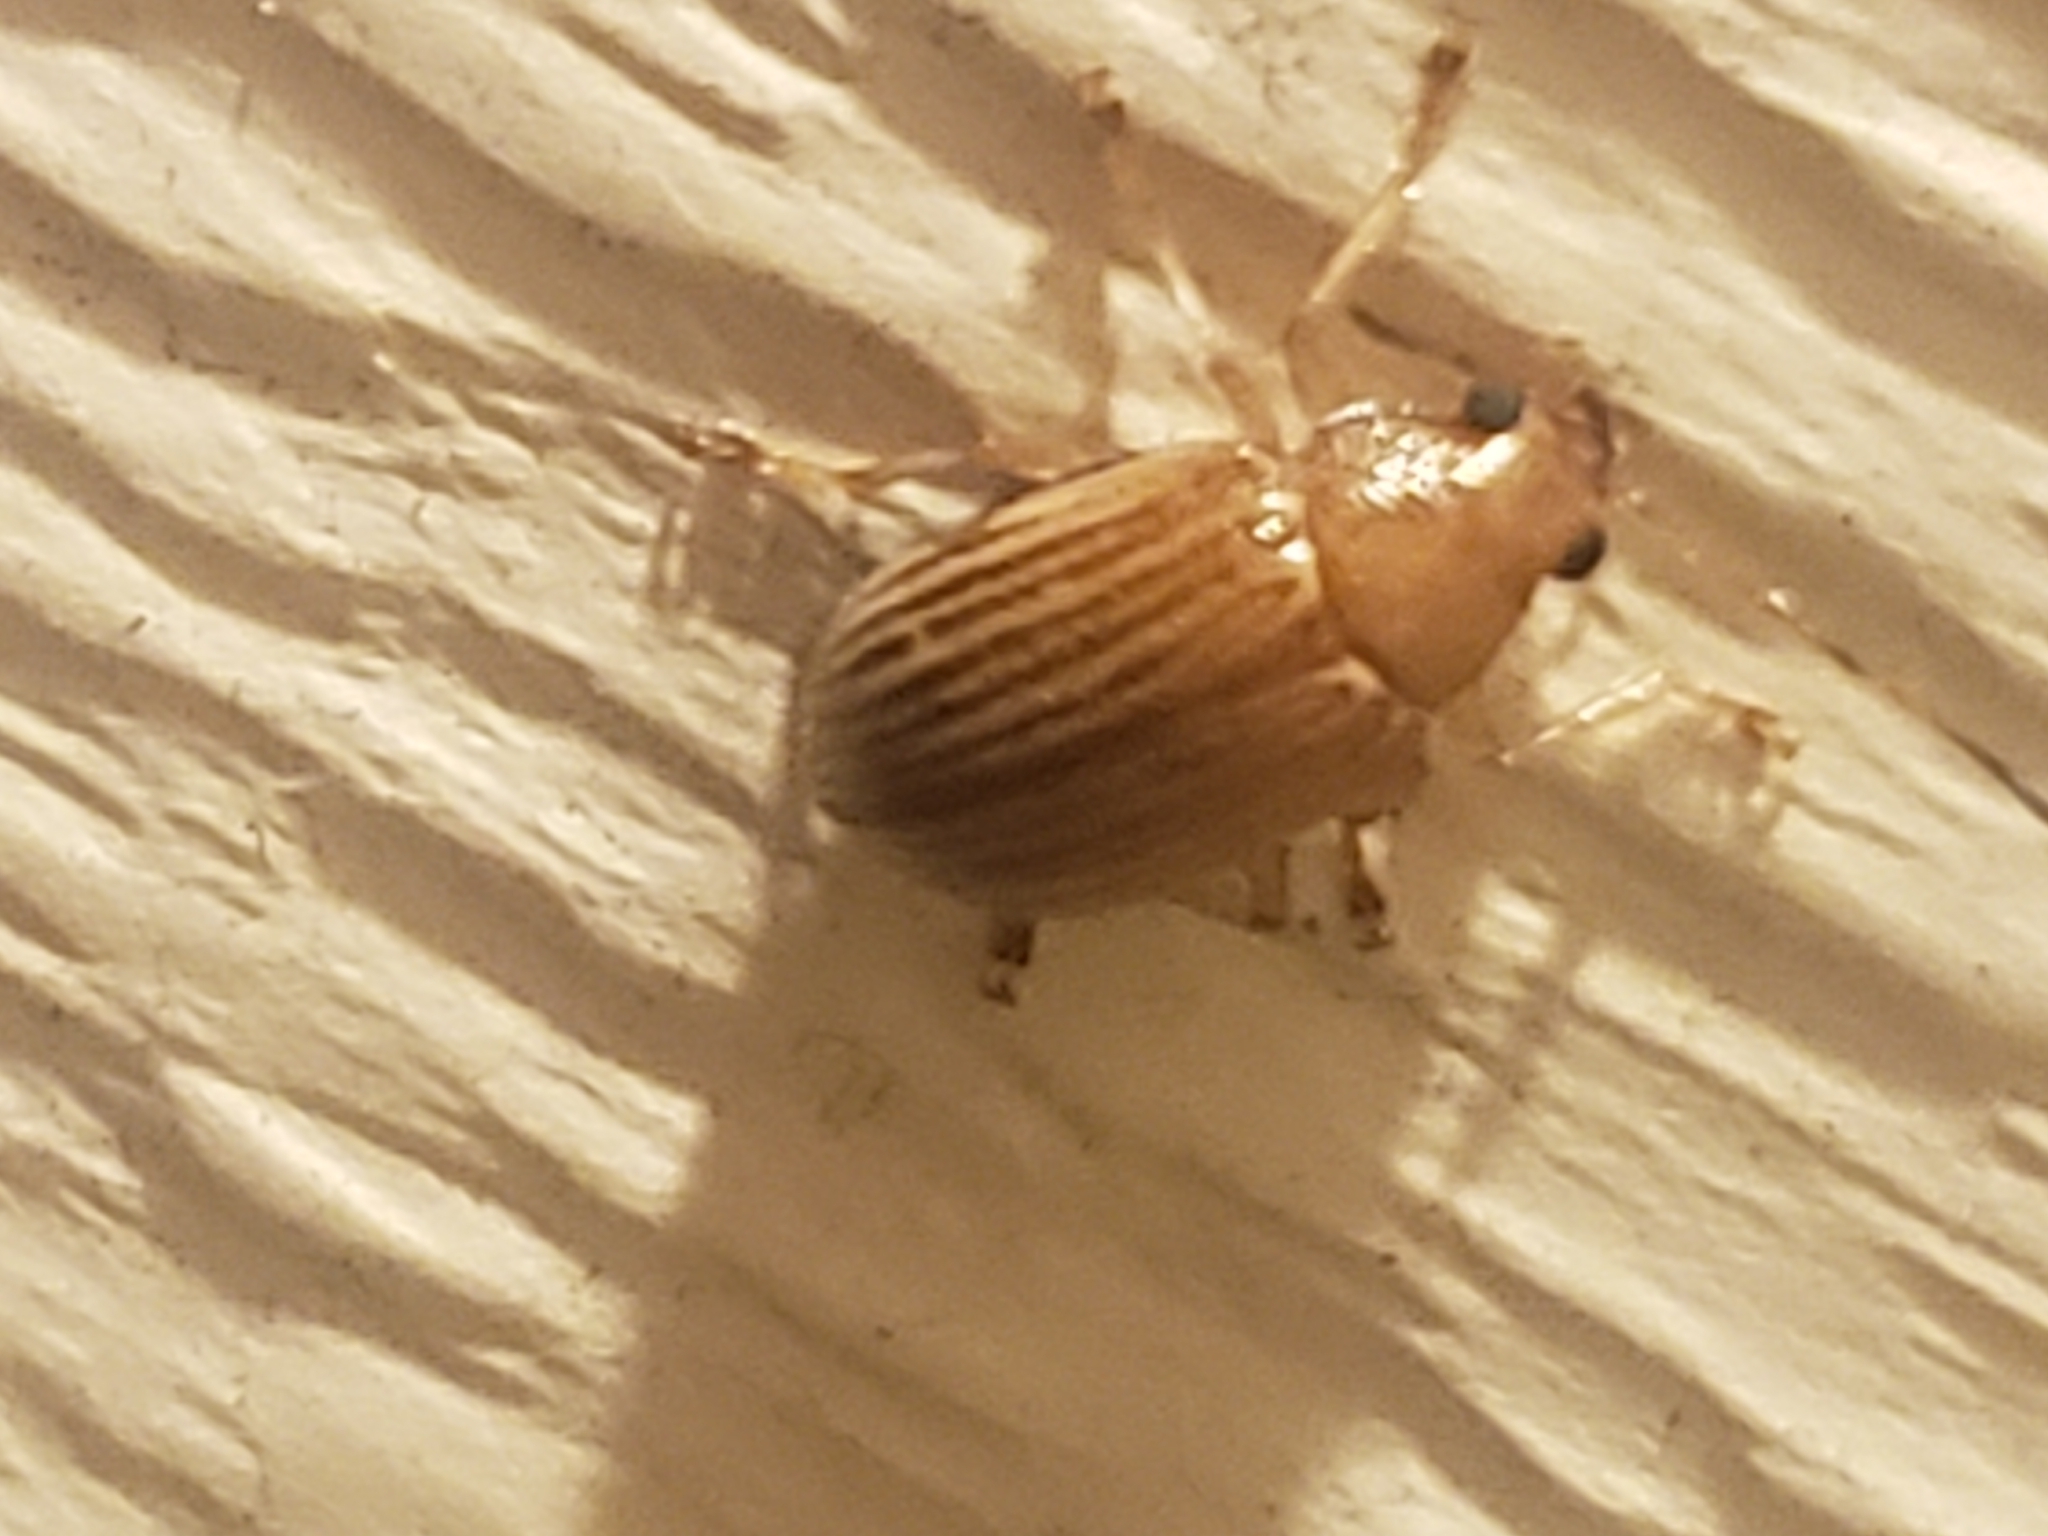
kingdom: Animalia
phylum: Arthropoda
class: Insecta
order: Coleoptera
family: Chrysomelidae
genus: Colaspis
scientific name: Colaspis brunnea
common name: Grape colaspis
